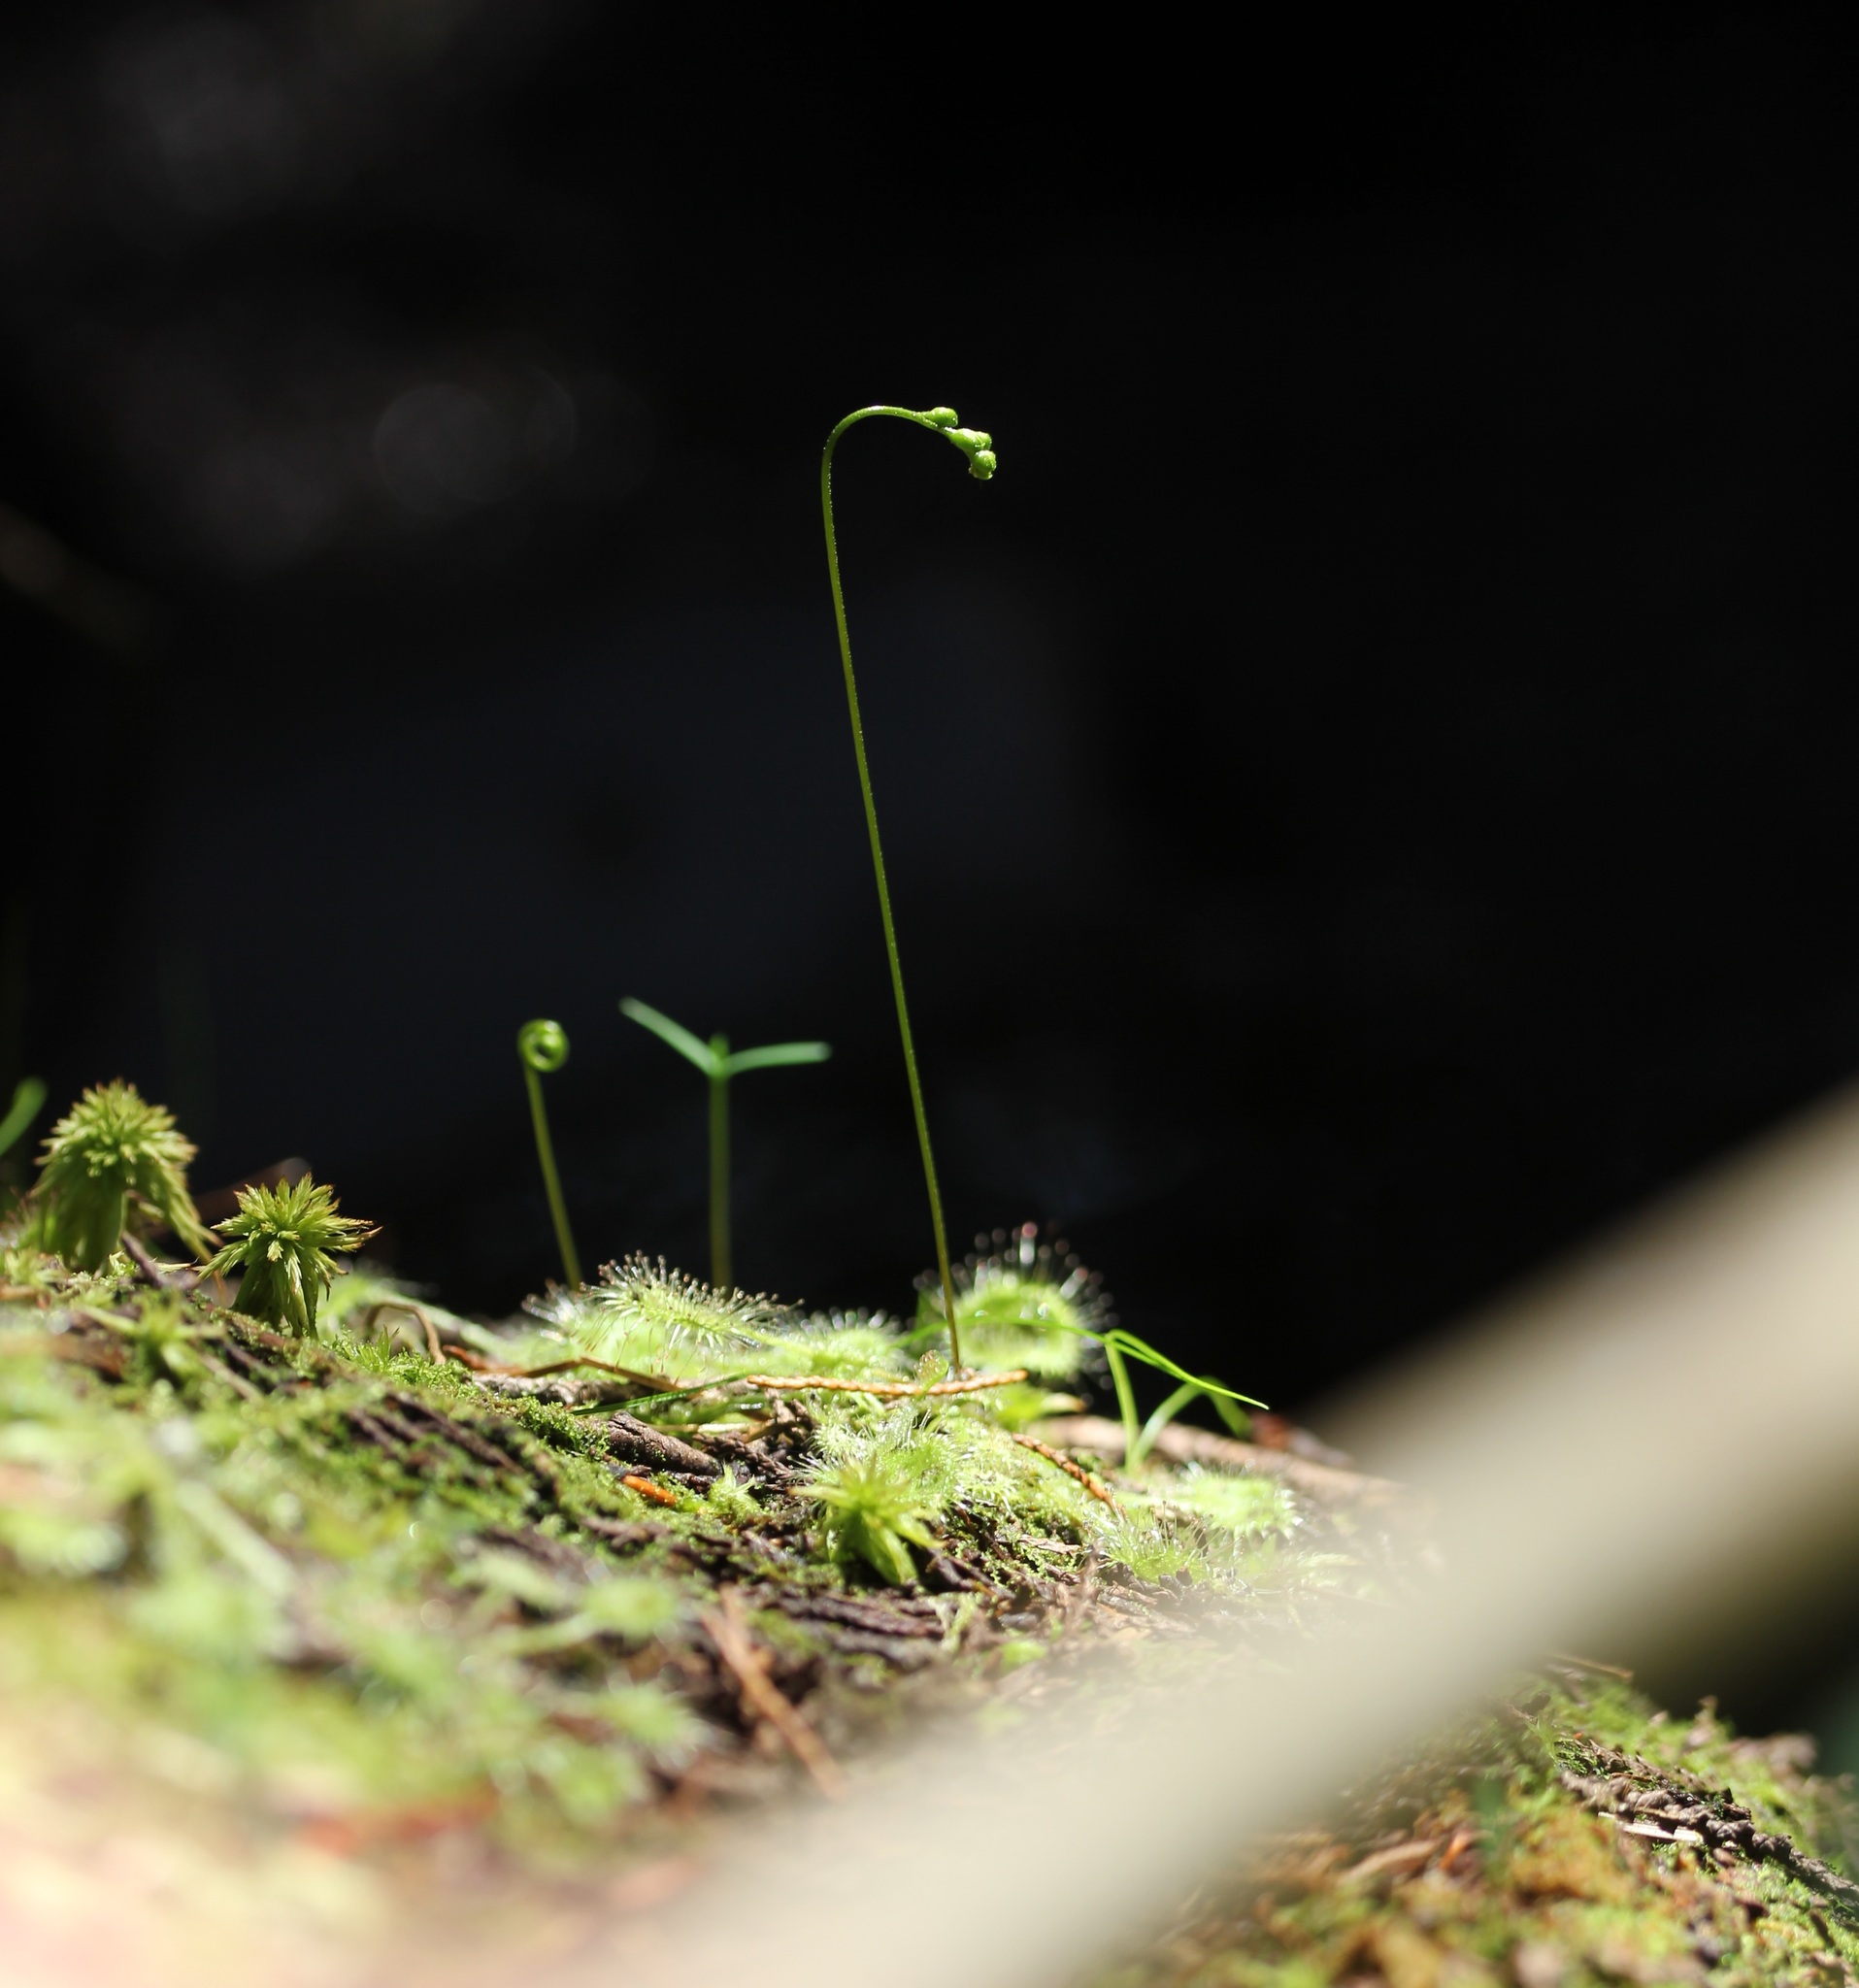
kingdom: Plantae
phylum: Tracheophyta
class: Magnoliopsida
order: Caryophyllales
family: Droseraceae
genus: Drosera
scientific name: Drosera rotundifolia
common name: Round-leaved sundew
